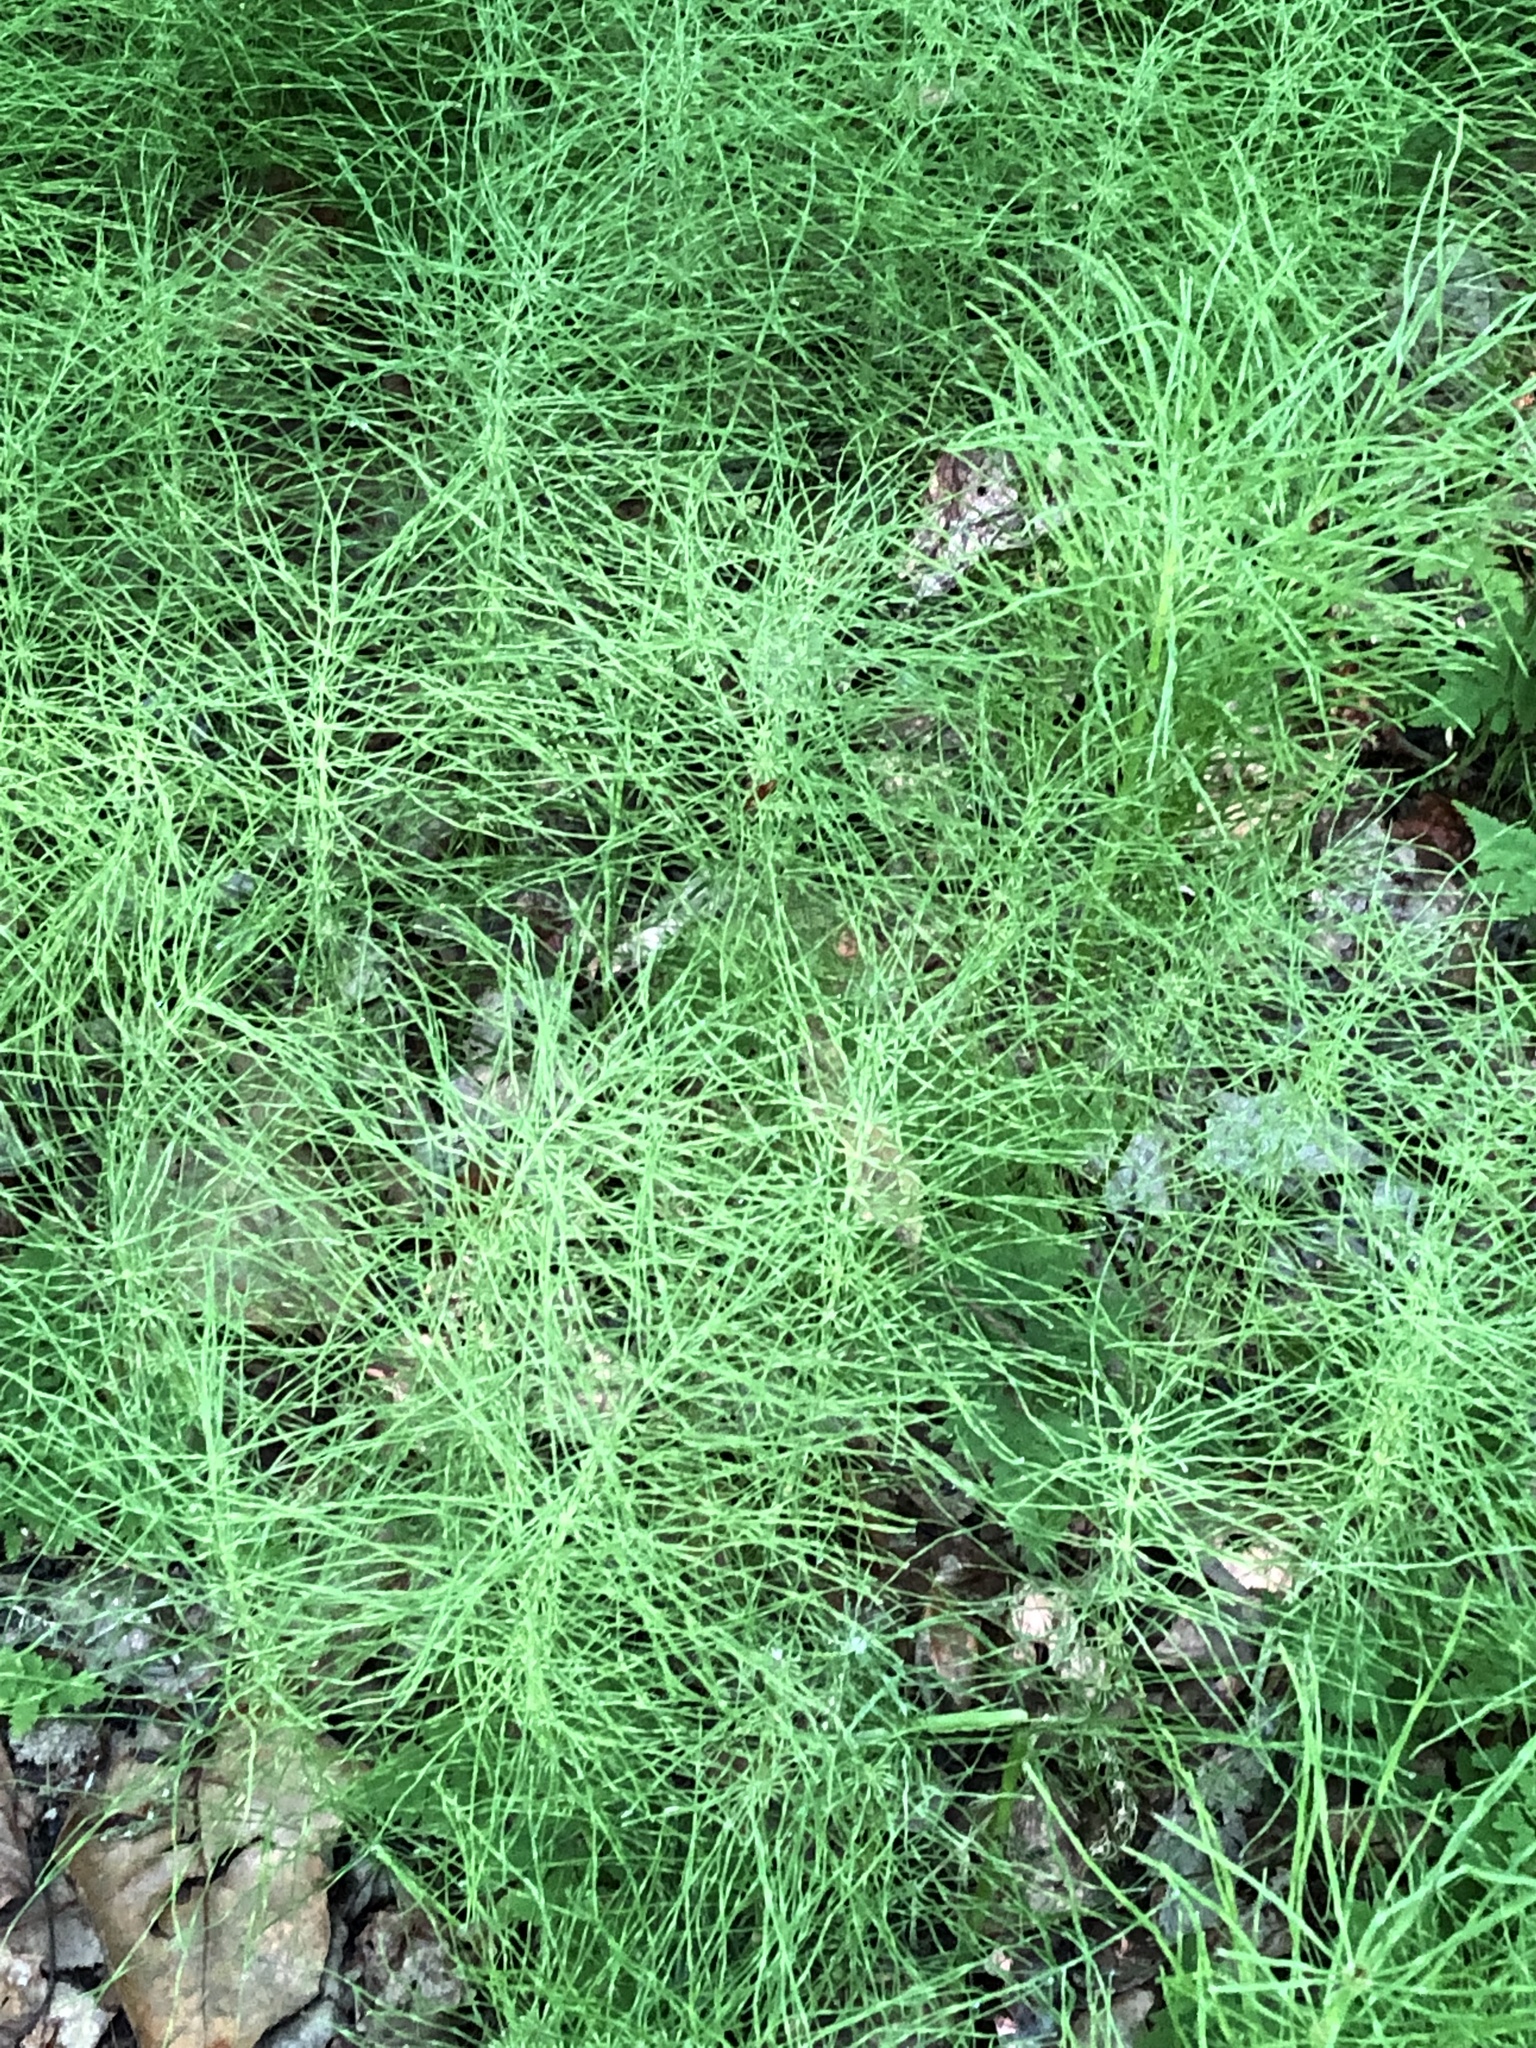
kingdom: Plantae
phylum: Tracheophyta
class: Polypodiopsida
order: Equisetales
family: Equisetaceae
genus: Equisetum
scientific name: Equisetum arvense
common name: Field horsetail
